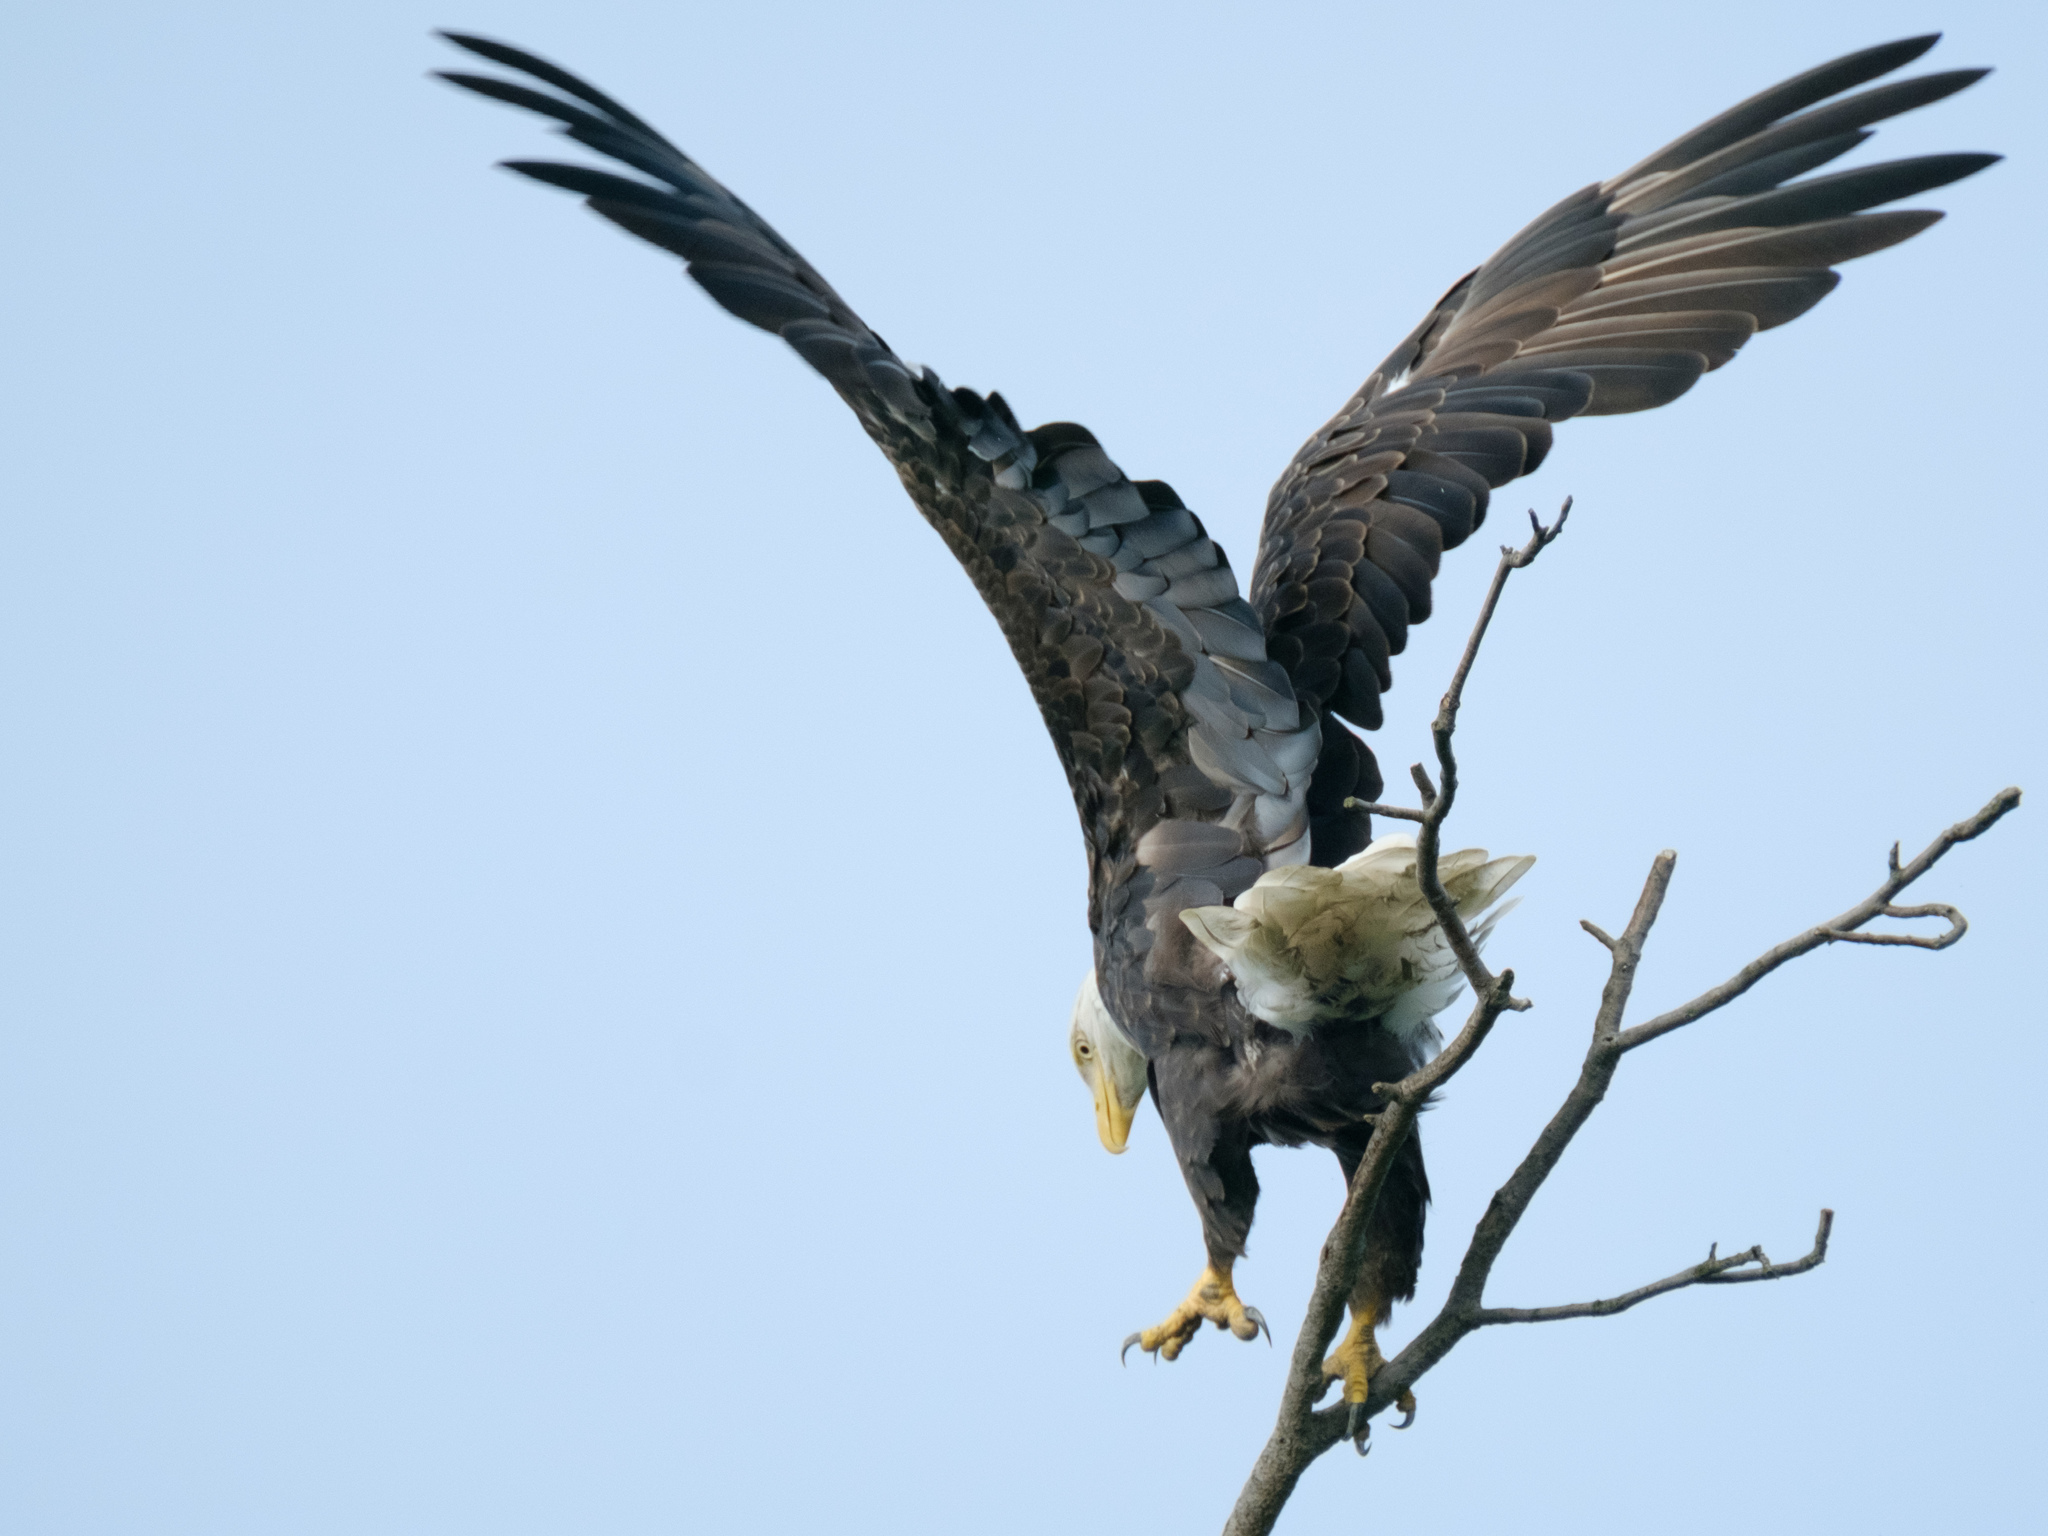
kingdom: Animalia
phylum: Chordata
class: Aves
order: Accipitriformes
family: Accipitridae
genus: Haliaeetus
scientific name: Haliaeetus leucocephalus
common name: Bald eagle
